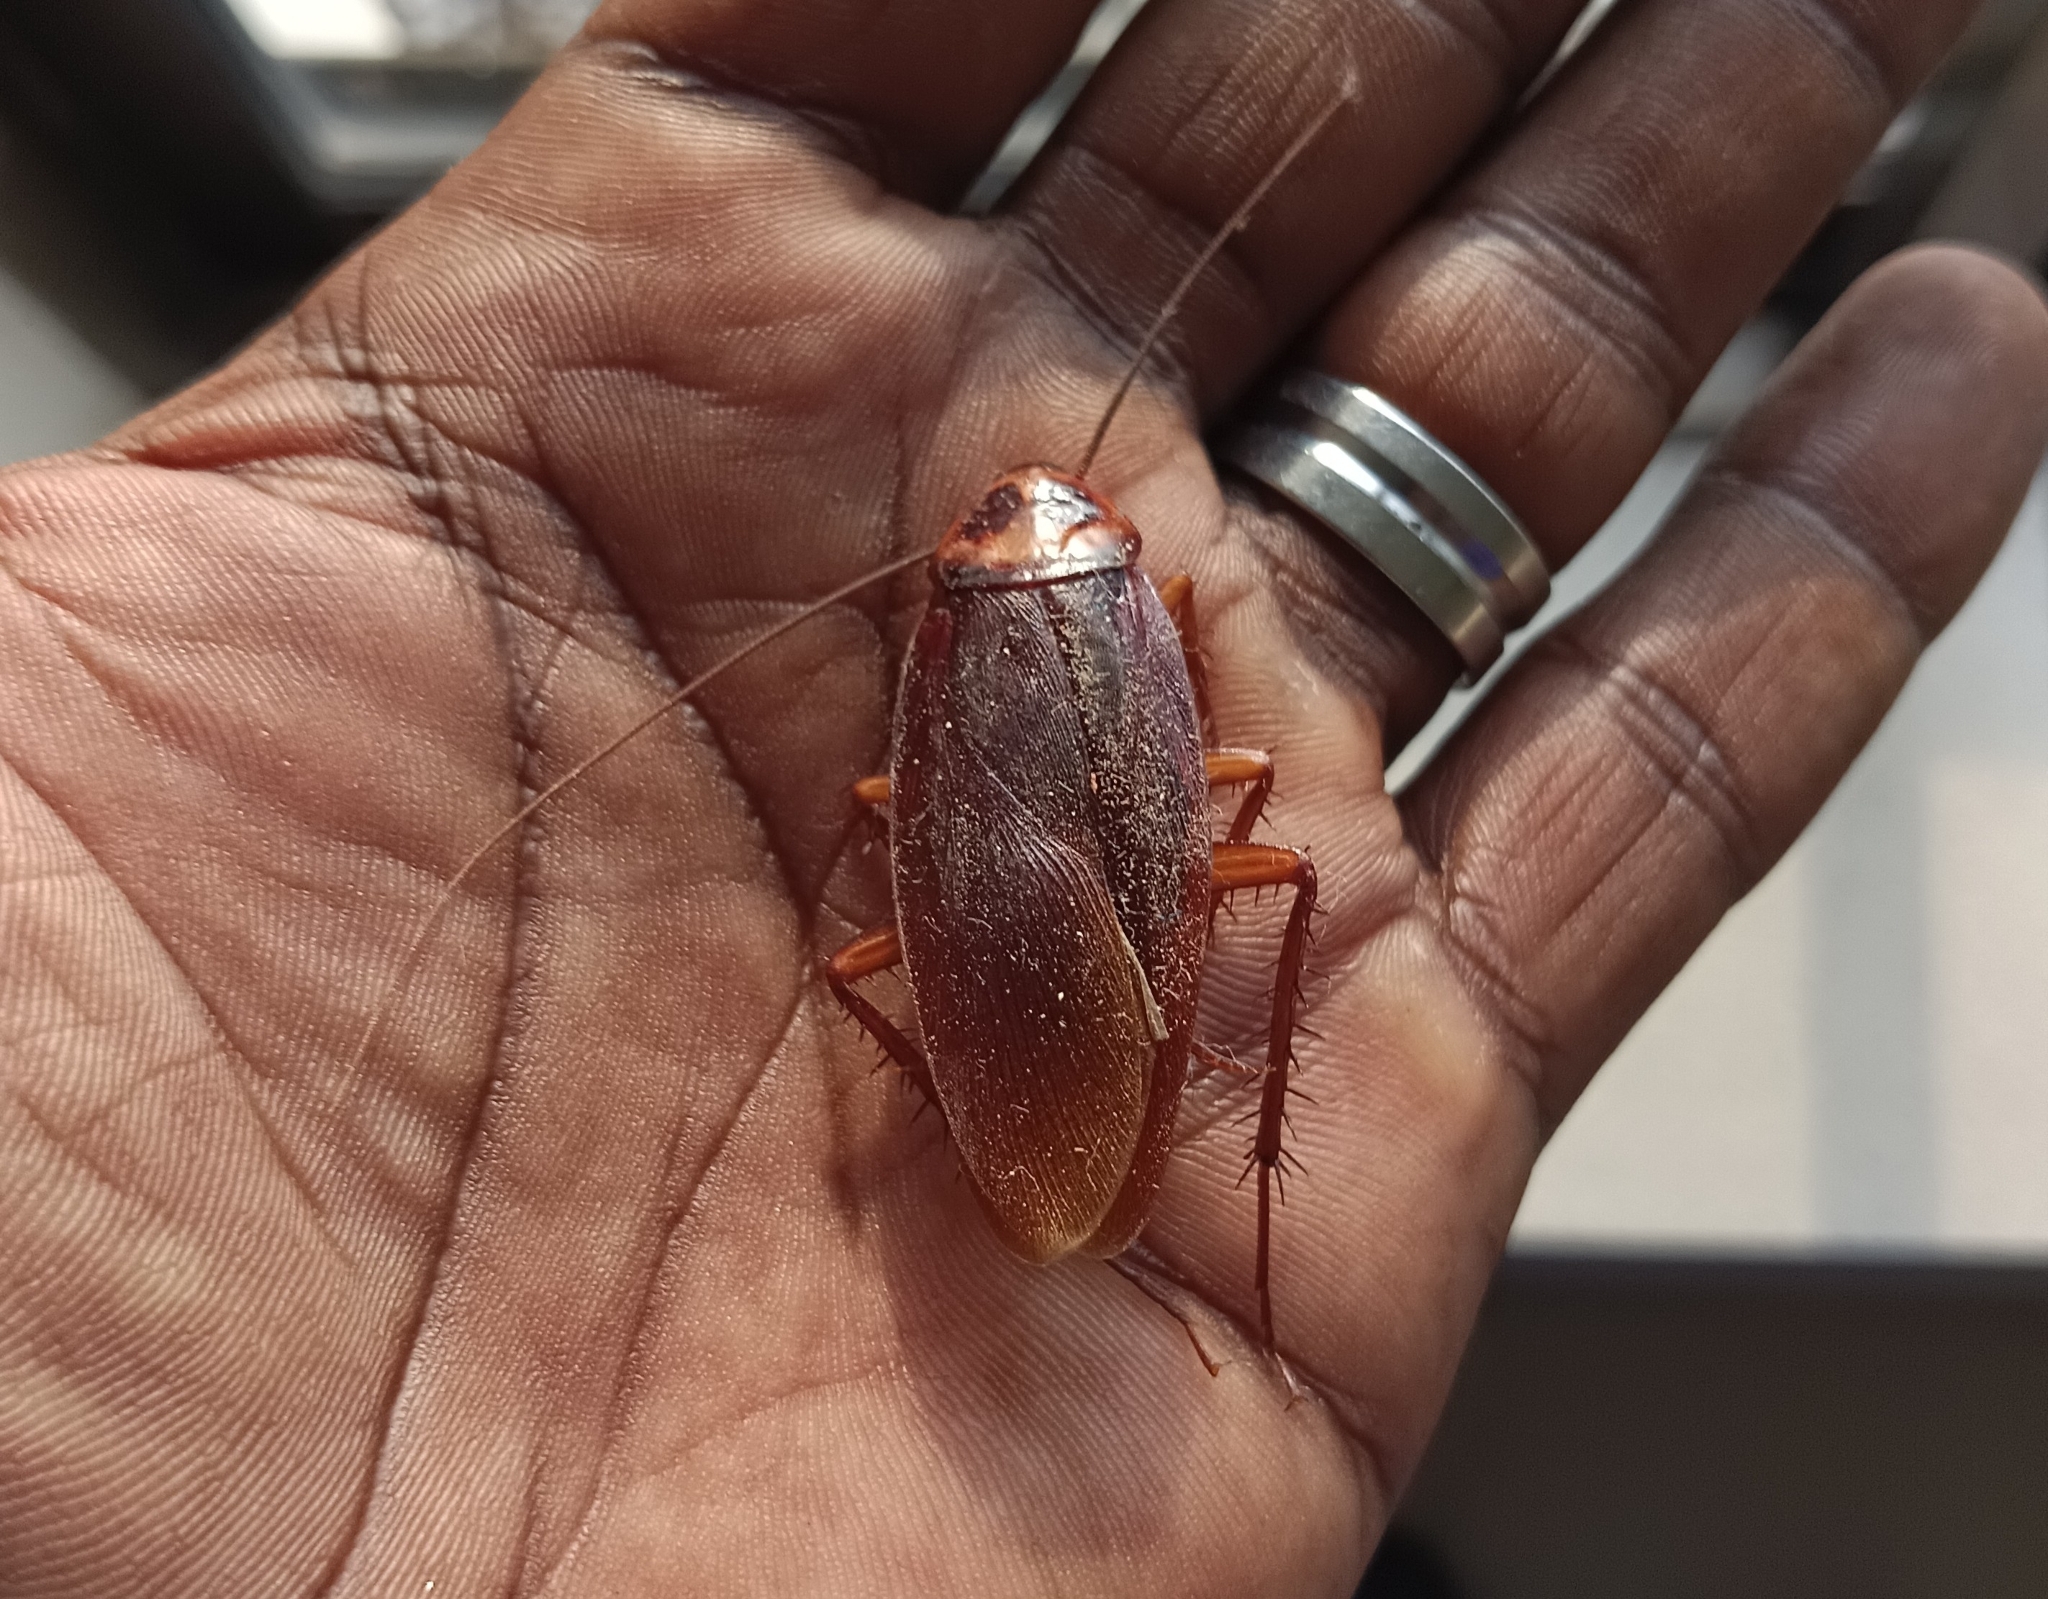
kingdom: Animalia
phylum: Arthropoda
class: Insecta
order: Blattodea
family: Blattidae
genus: Periplaneta
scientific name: Periplaneta americana
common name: American cockroach
